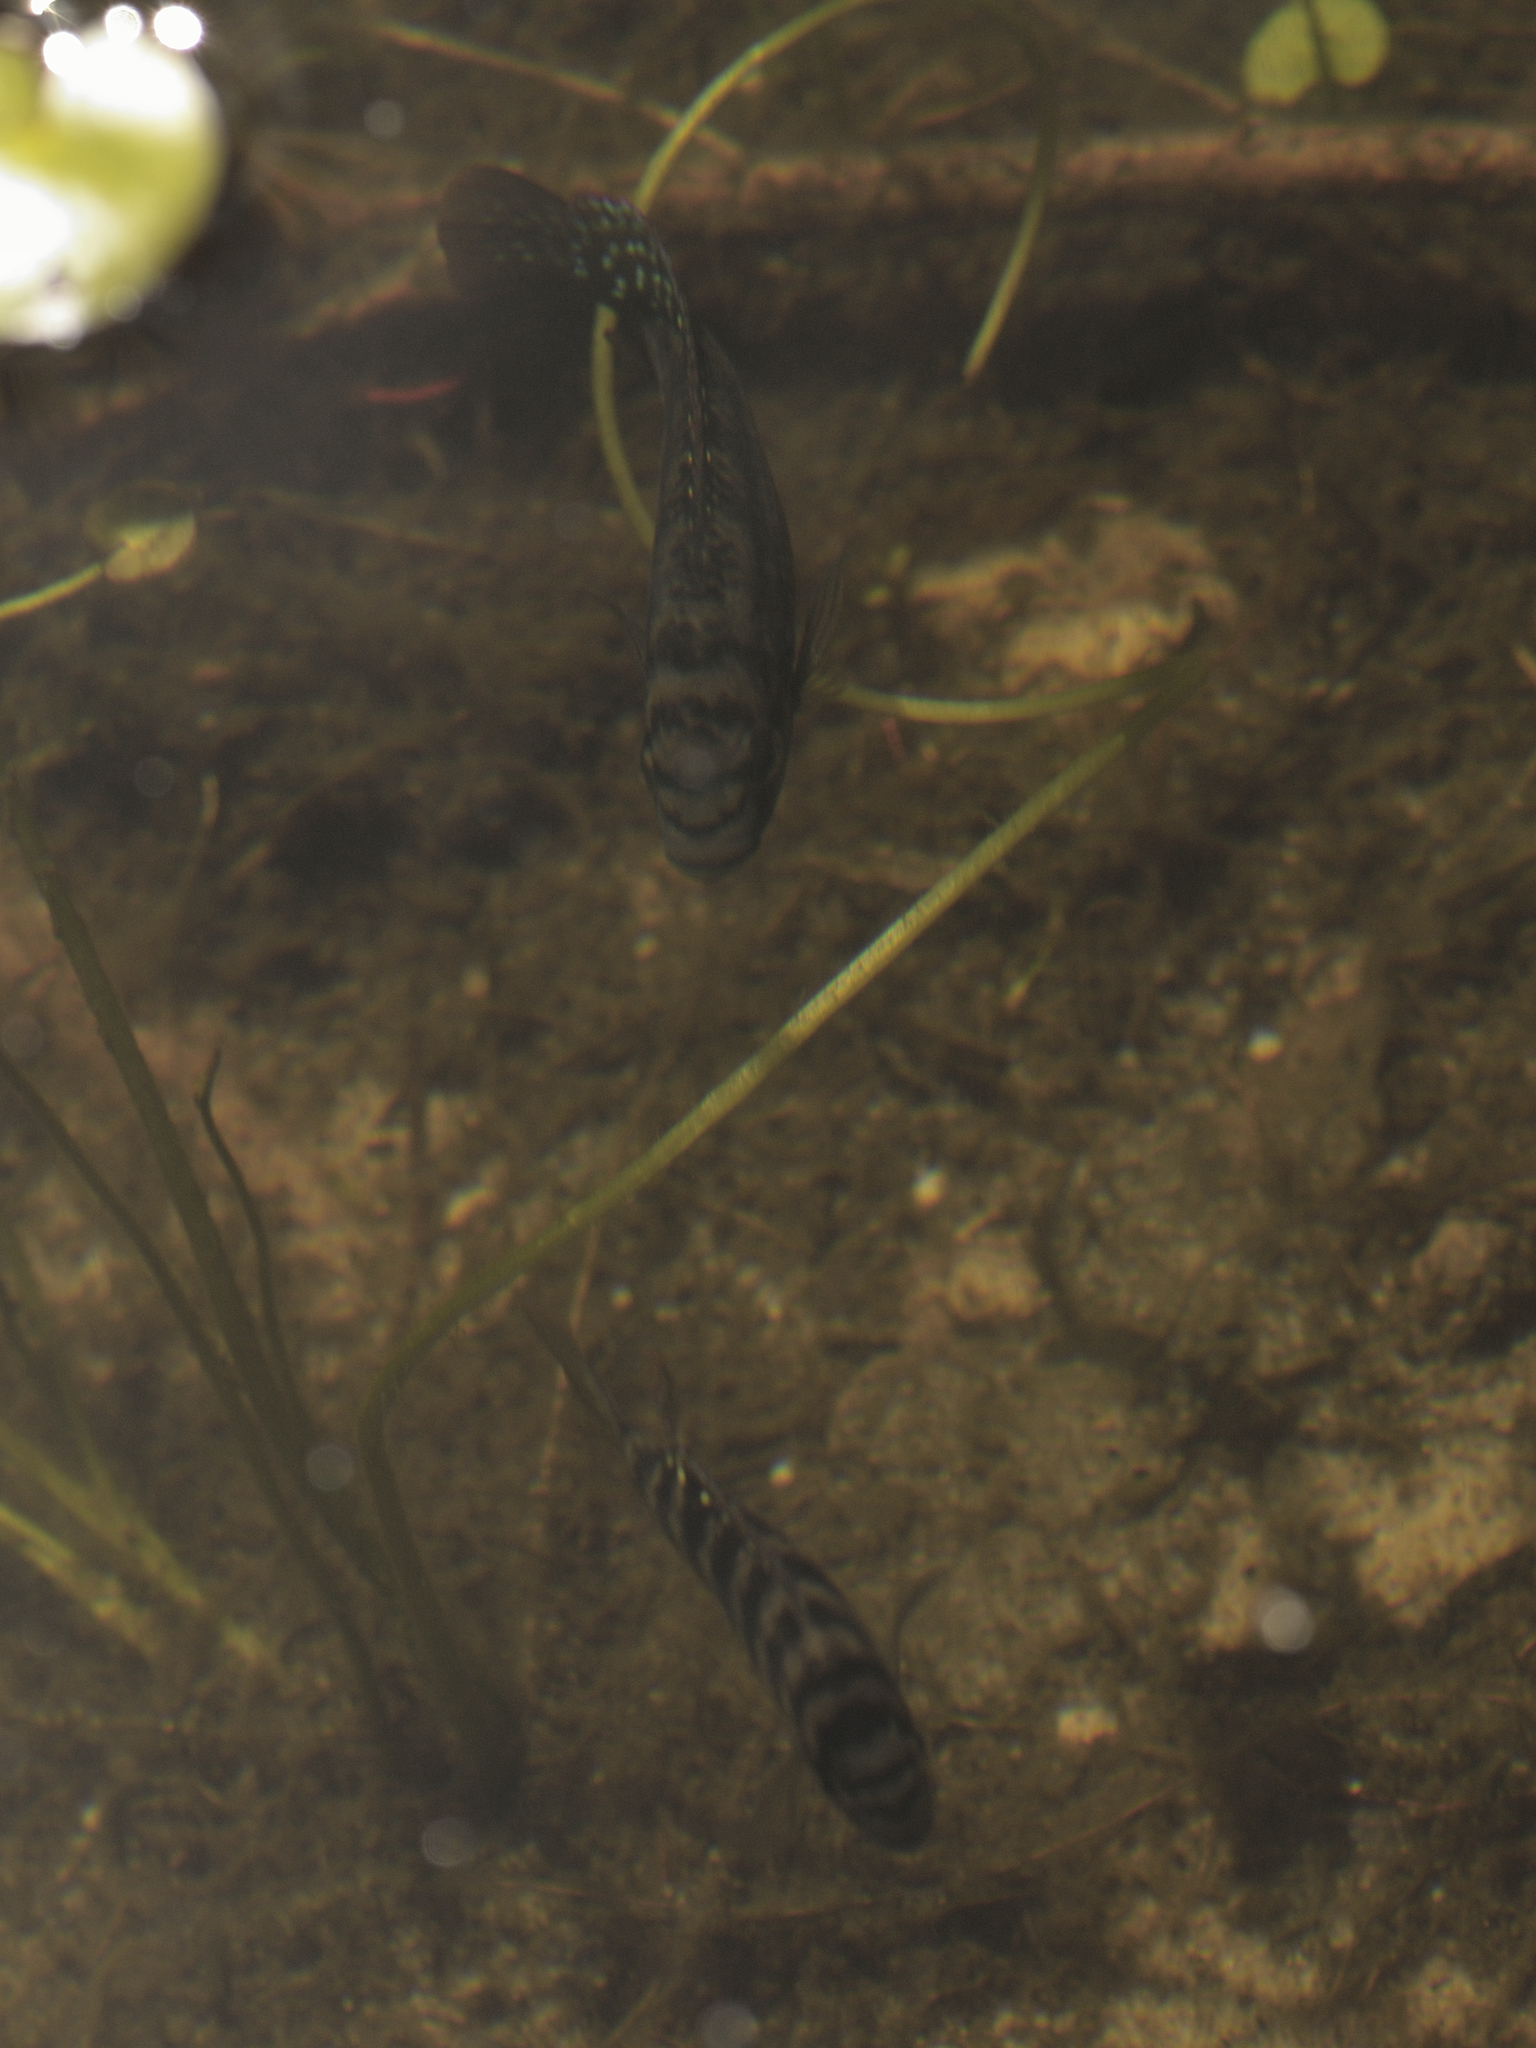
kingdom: Animalia
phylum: Chordata
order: Perciformes
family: Cichlidae
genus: Tilapia
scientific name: Tilapia sparrmanii
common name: Banded tilapia
